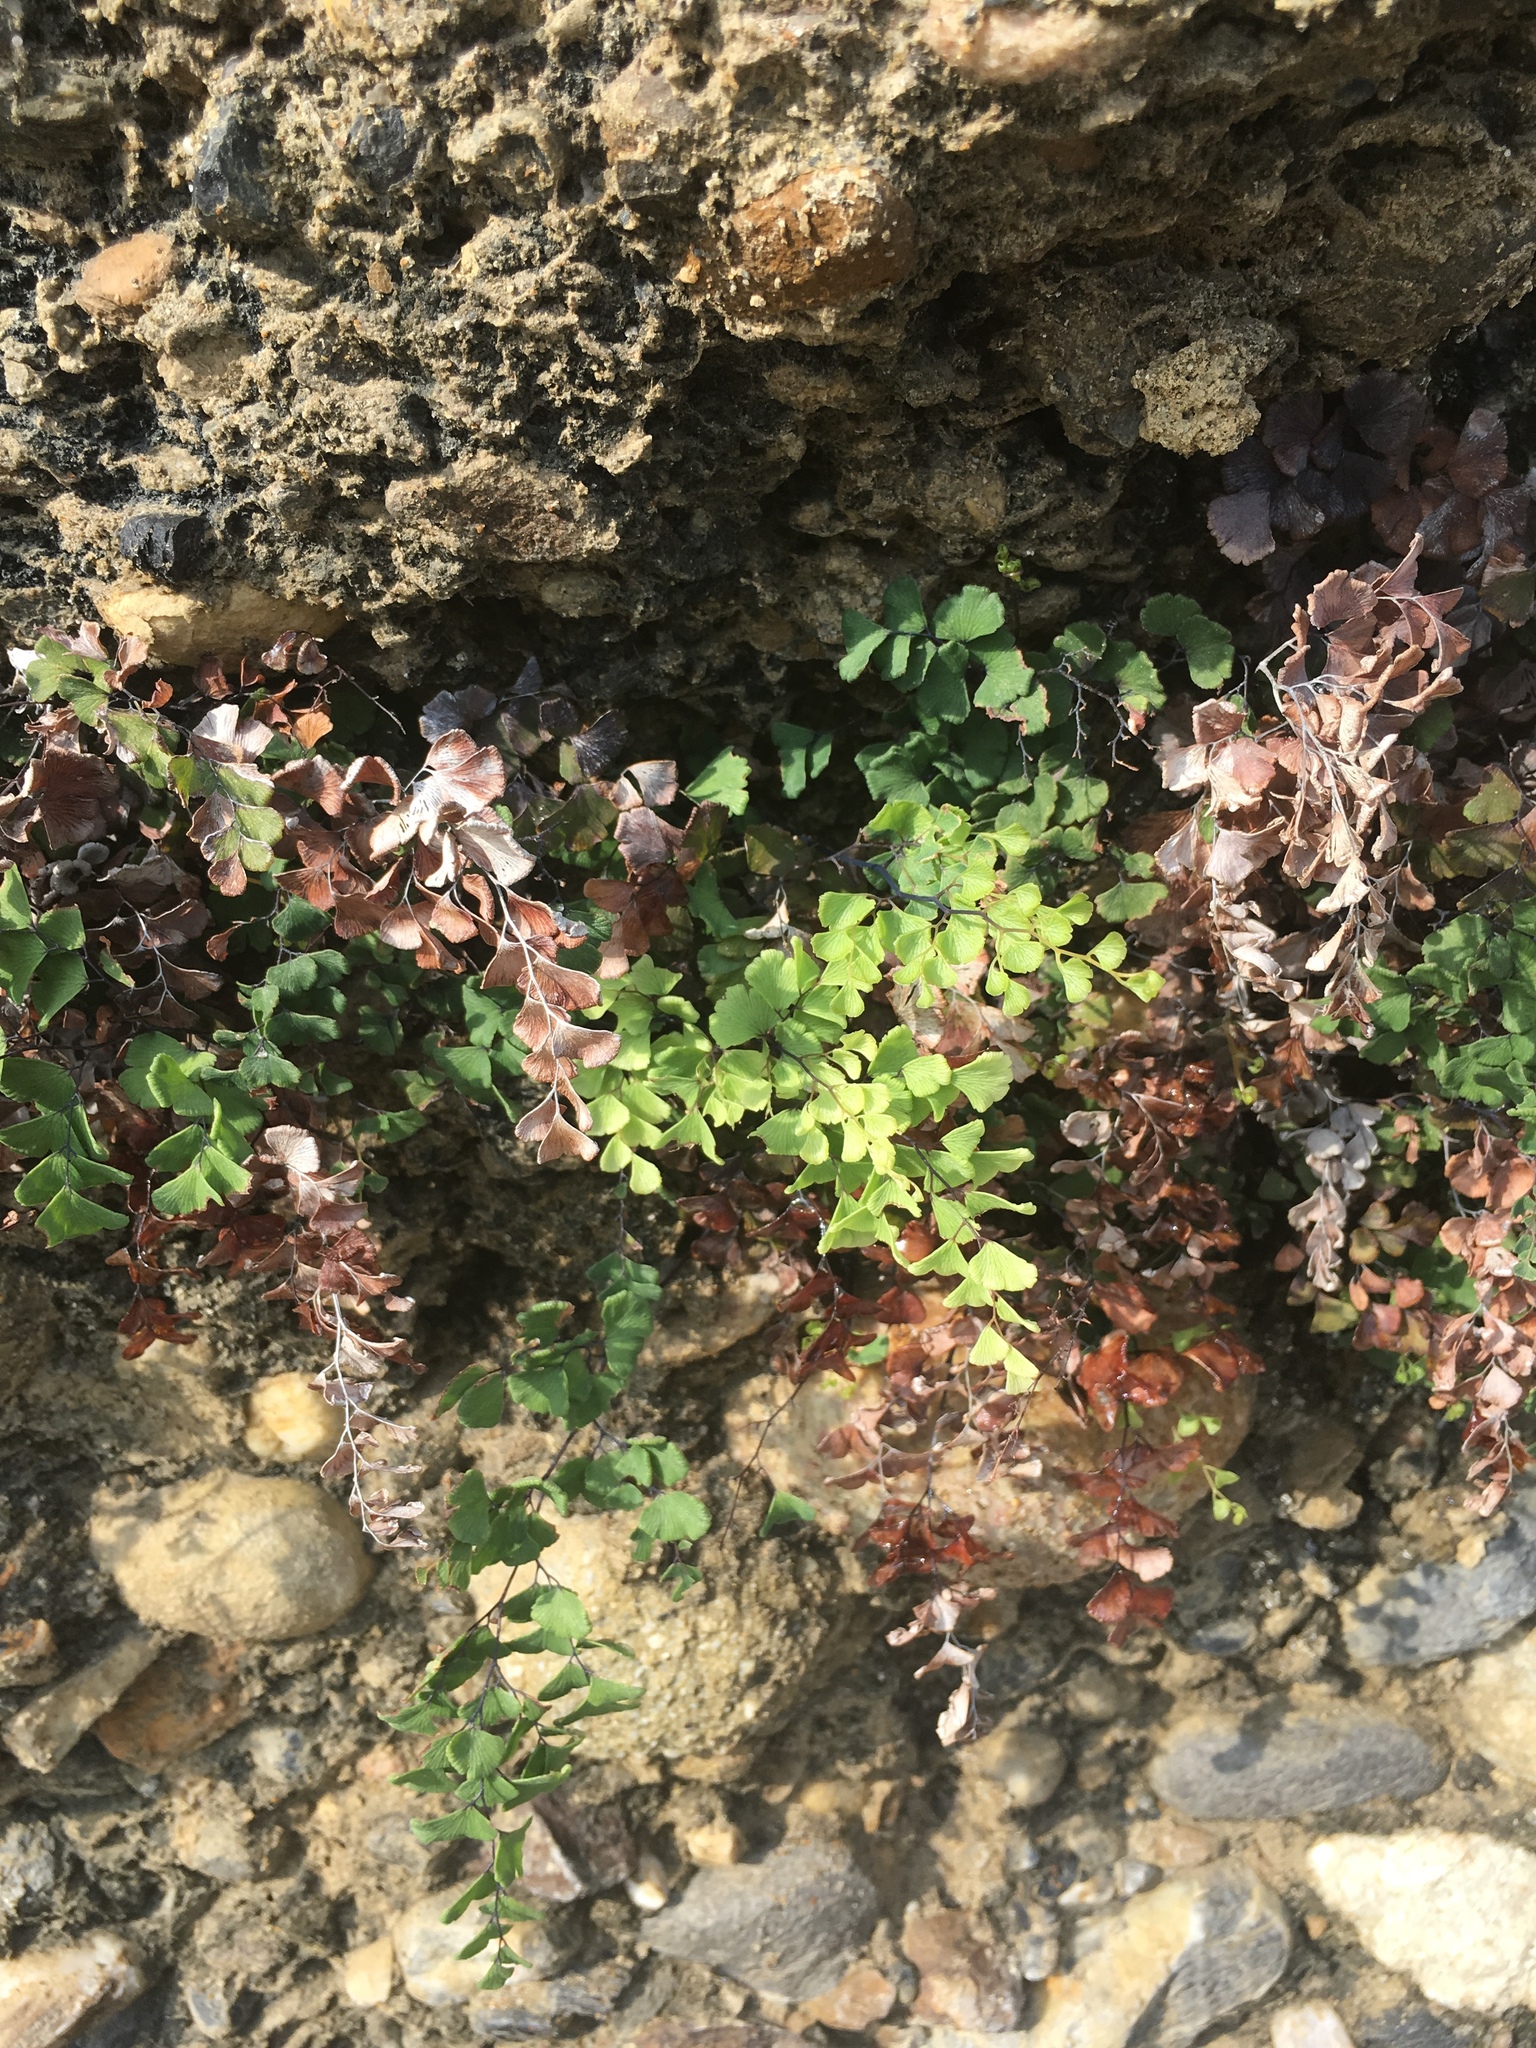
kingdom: Plantae
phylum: Tracheophyta
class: Polypodiopsida
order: Polypodiales
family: Pteridaceae
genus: Adiantum
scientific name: Adiantum capillus-veneris
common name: Maidenhair fern
